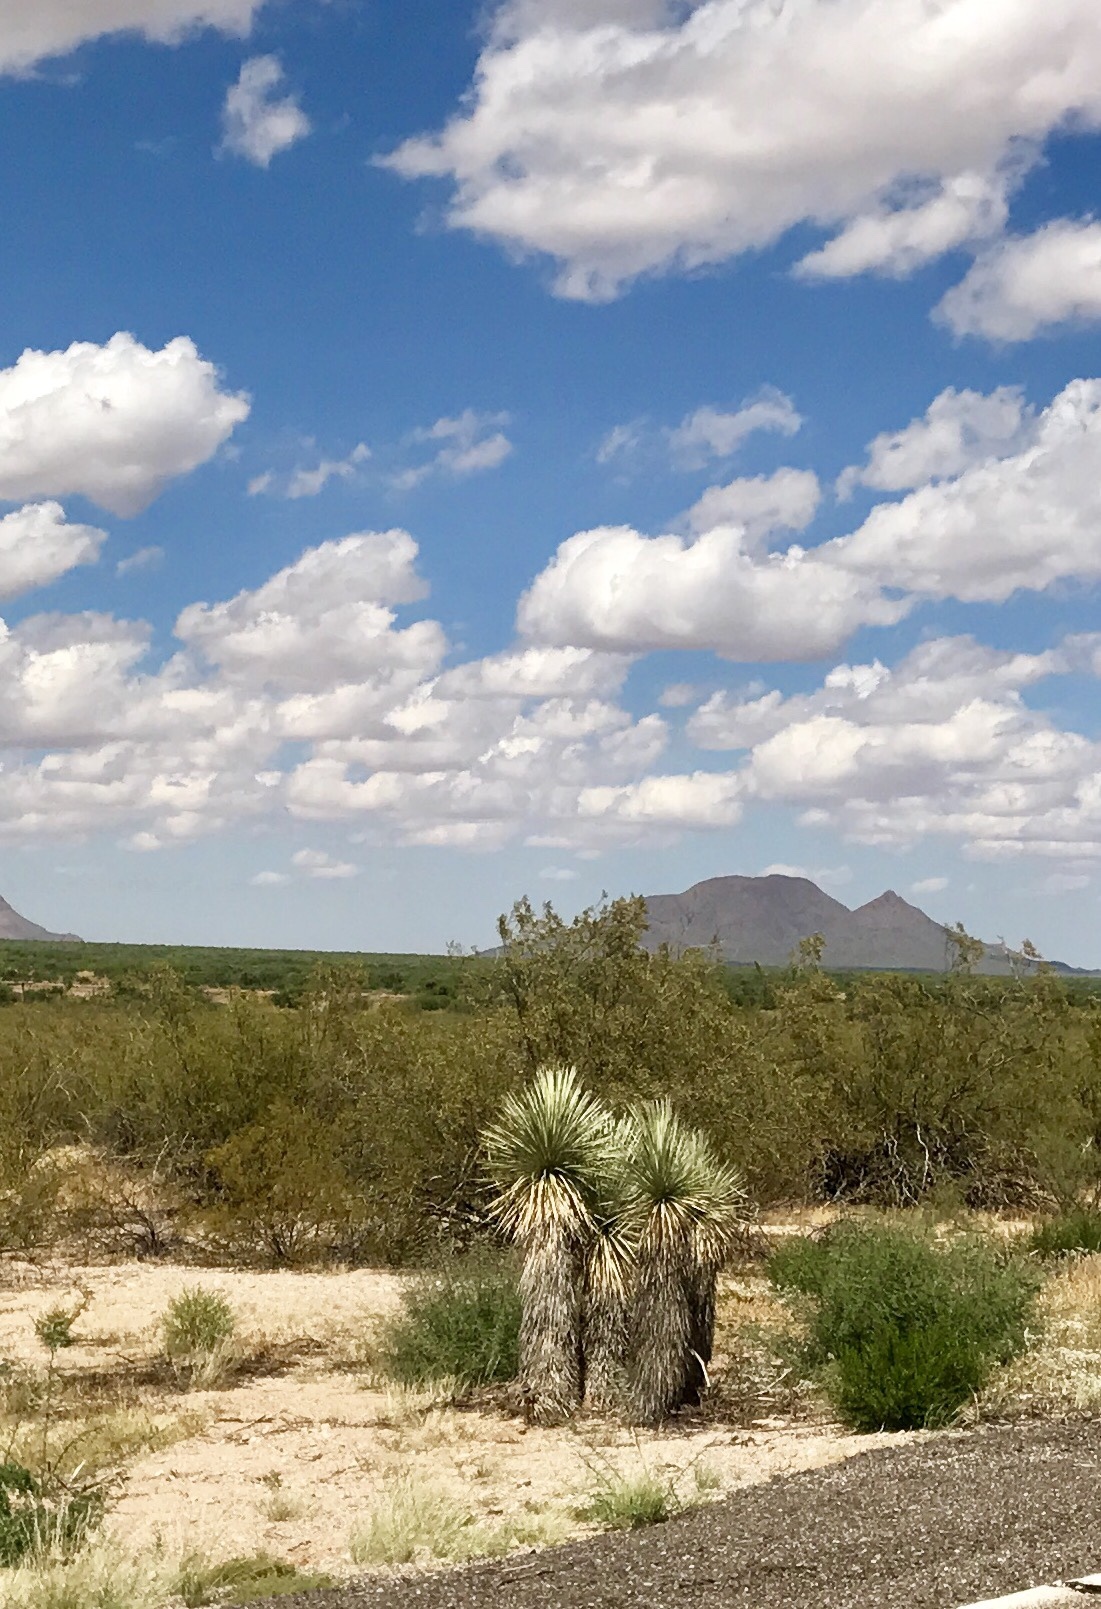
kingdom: Plantae
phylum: Tracheophyta
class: Liliopsida
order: Asparagales
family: Asparagaceae
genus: Yucca
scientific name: Yucca elata
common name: Palmella
